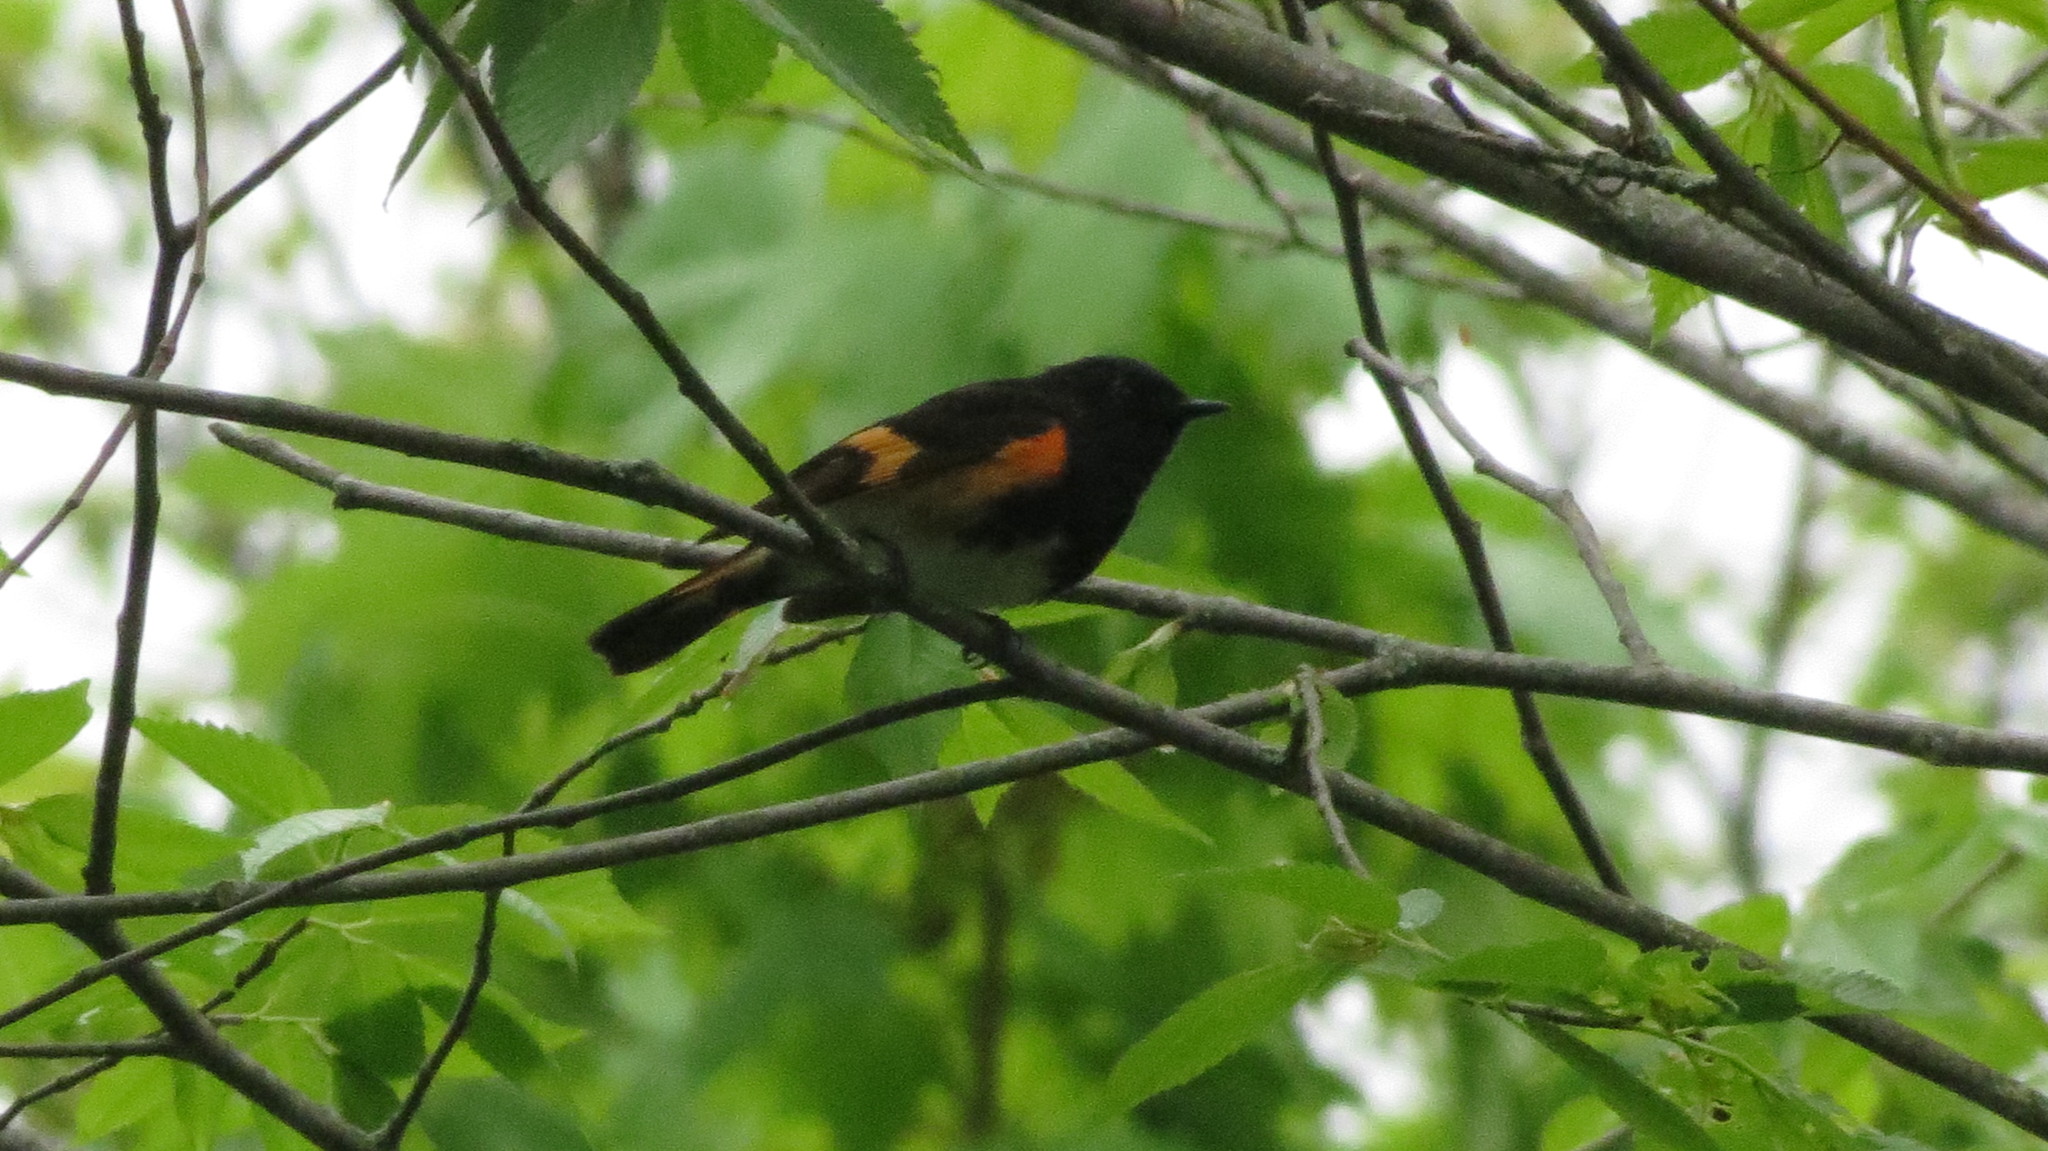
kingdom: Animalia
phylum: Chordata
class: Aves
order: Passeriformes
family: Parulidae
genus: Setophaga
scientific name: Setophaga ruticilla
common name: American redstart
